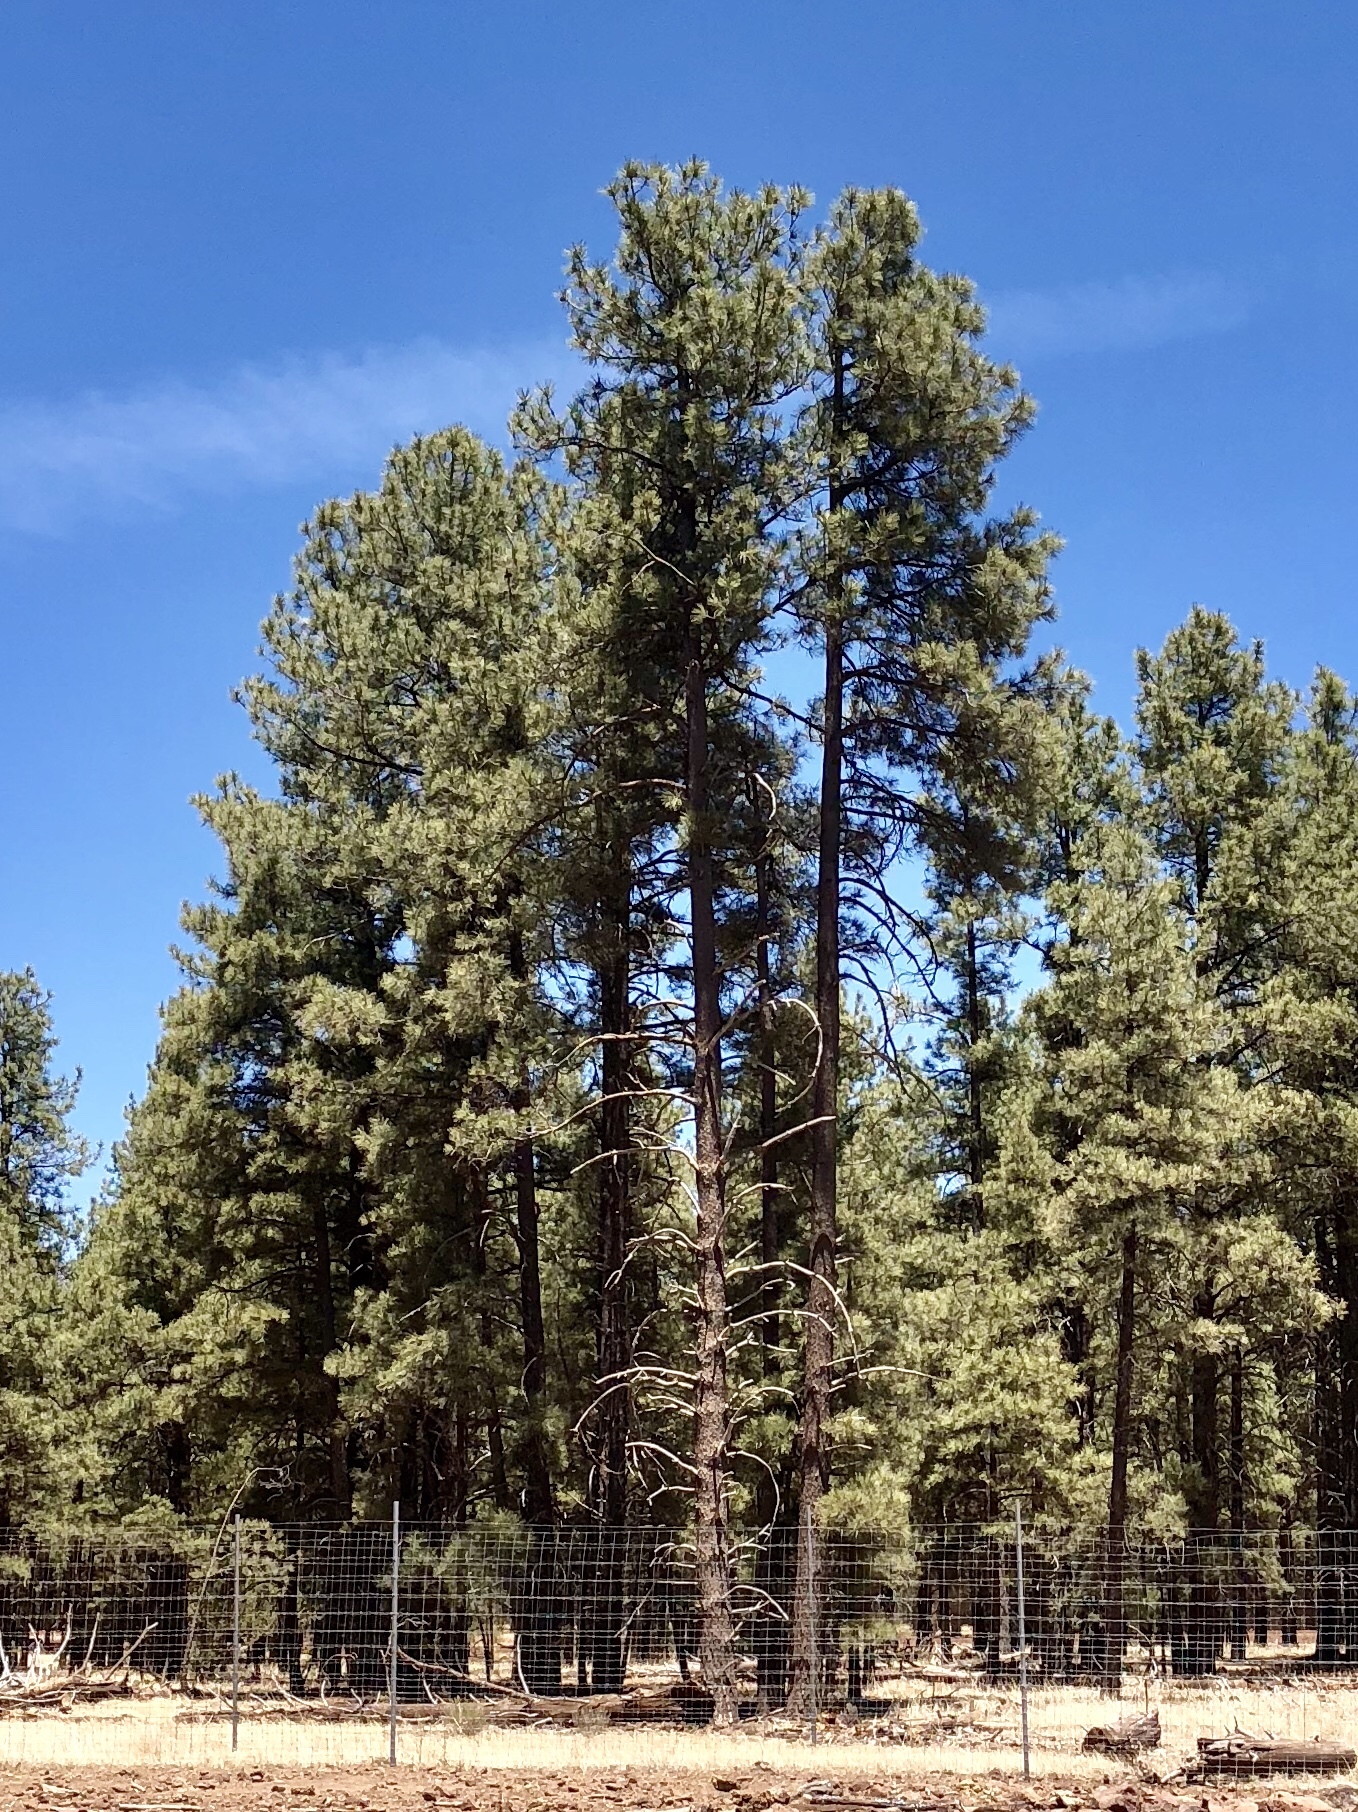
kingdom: Plantae
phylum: Tracheophyta
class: Pinopsida
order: Pinales
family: Pinaceae
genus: Pinus
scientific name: Pinus ponderosa
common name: Western yellow-pine
